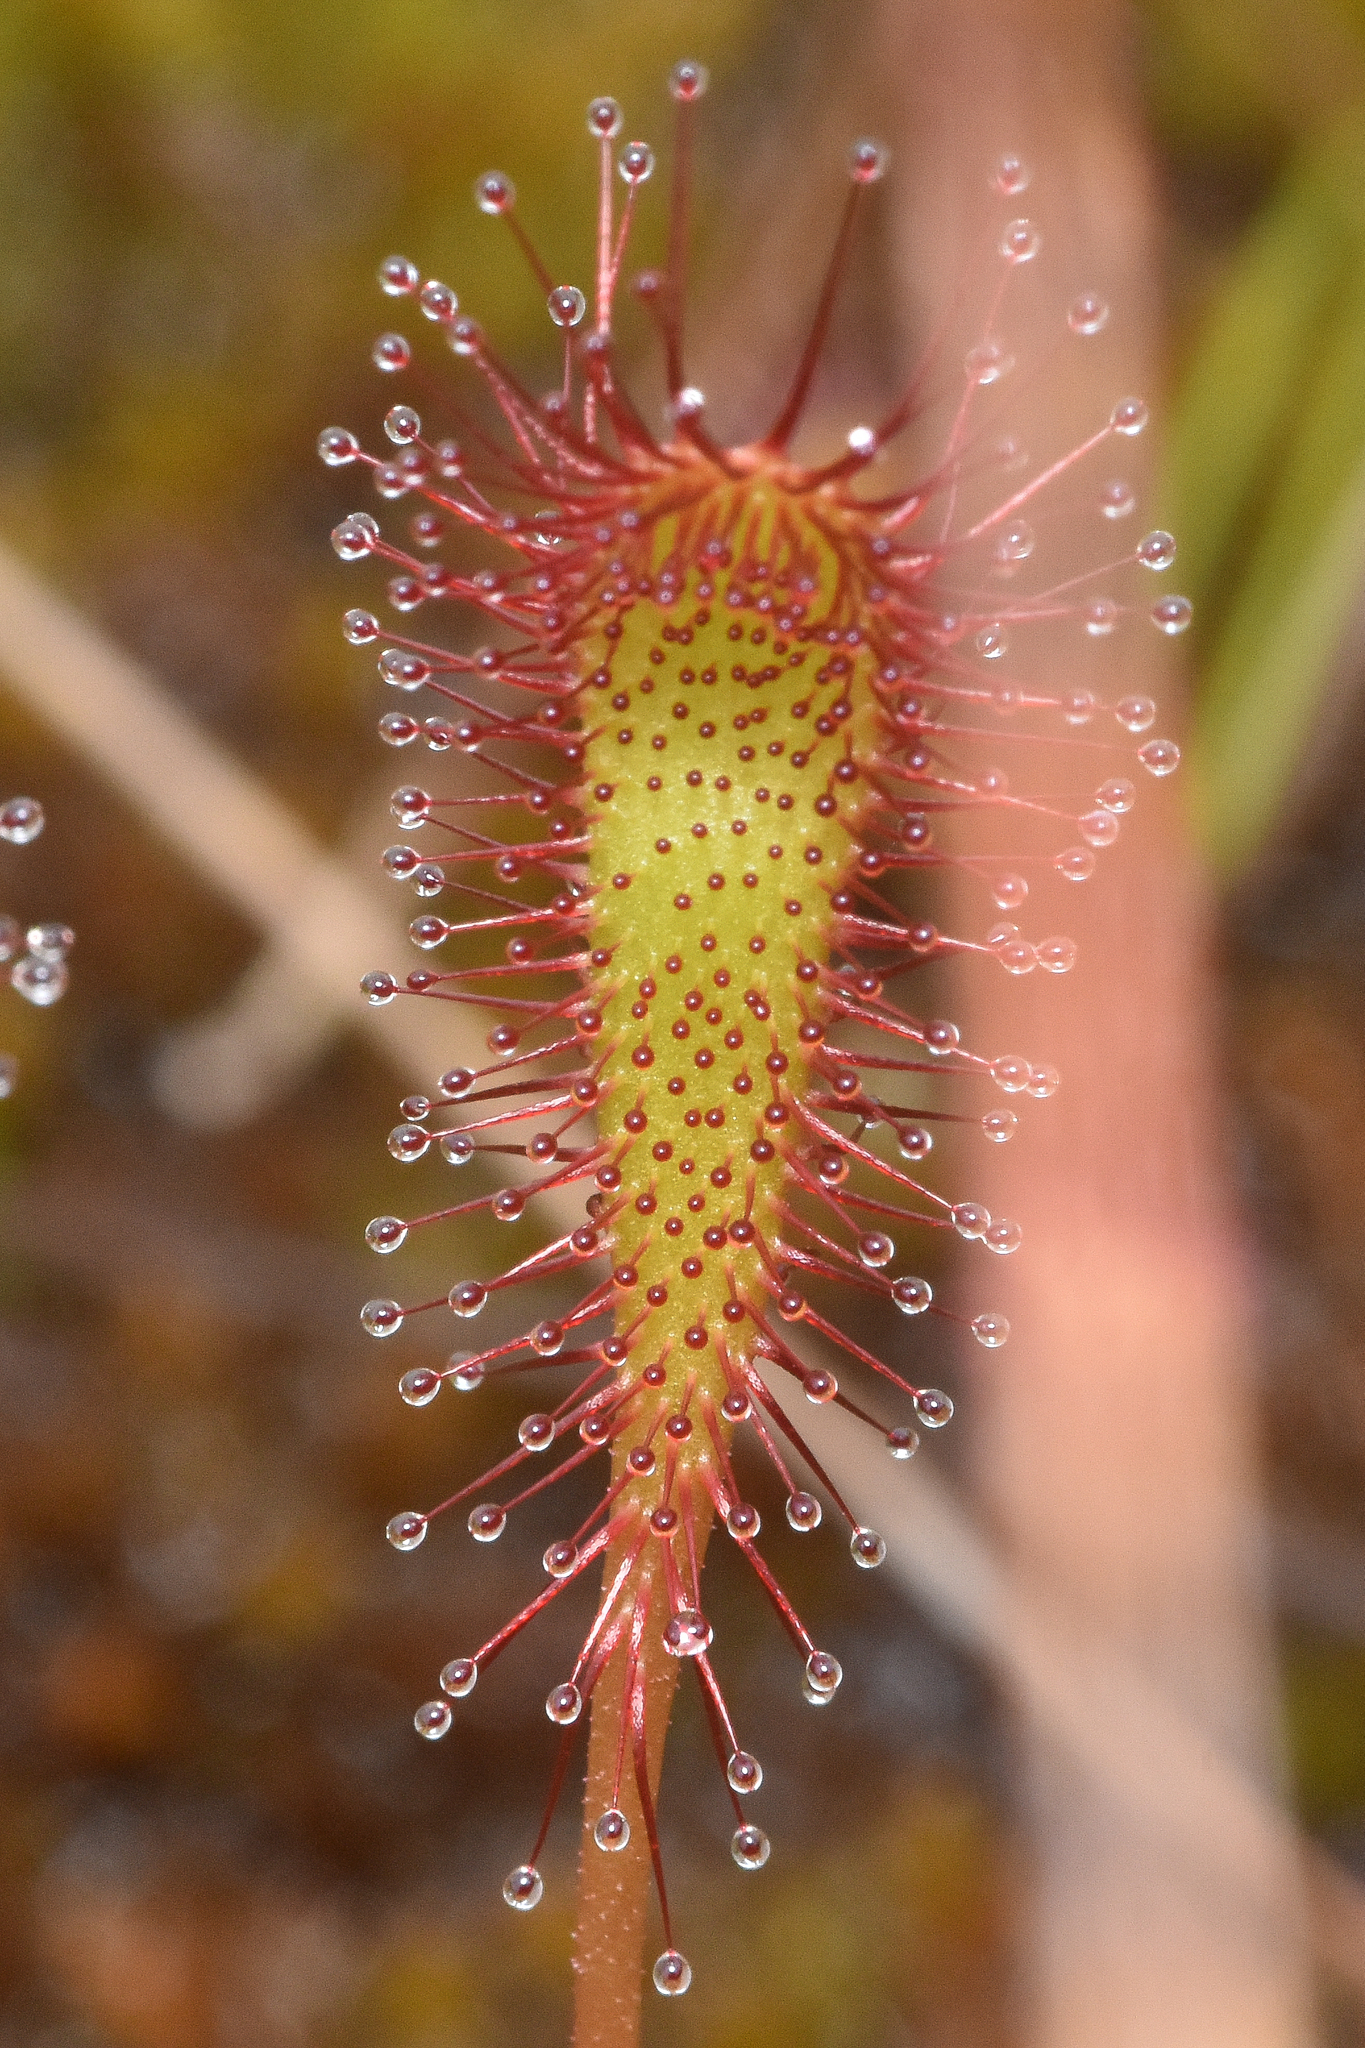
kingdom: Plantae
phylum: Tracheophyta
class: Magnoliopsida
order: Caryophyllales
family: Droseraceae
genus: Drosera
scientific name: Drosera anglica
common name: Great sundew
